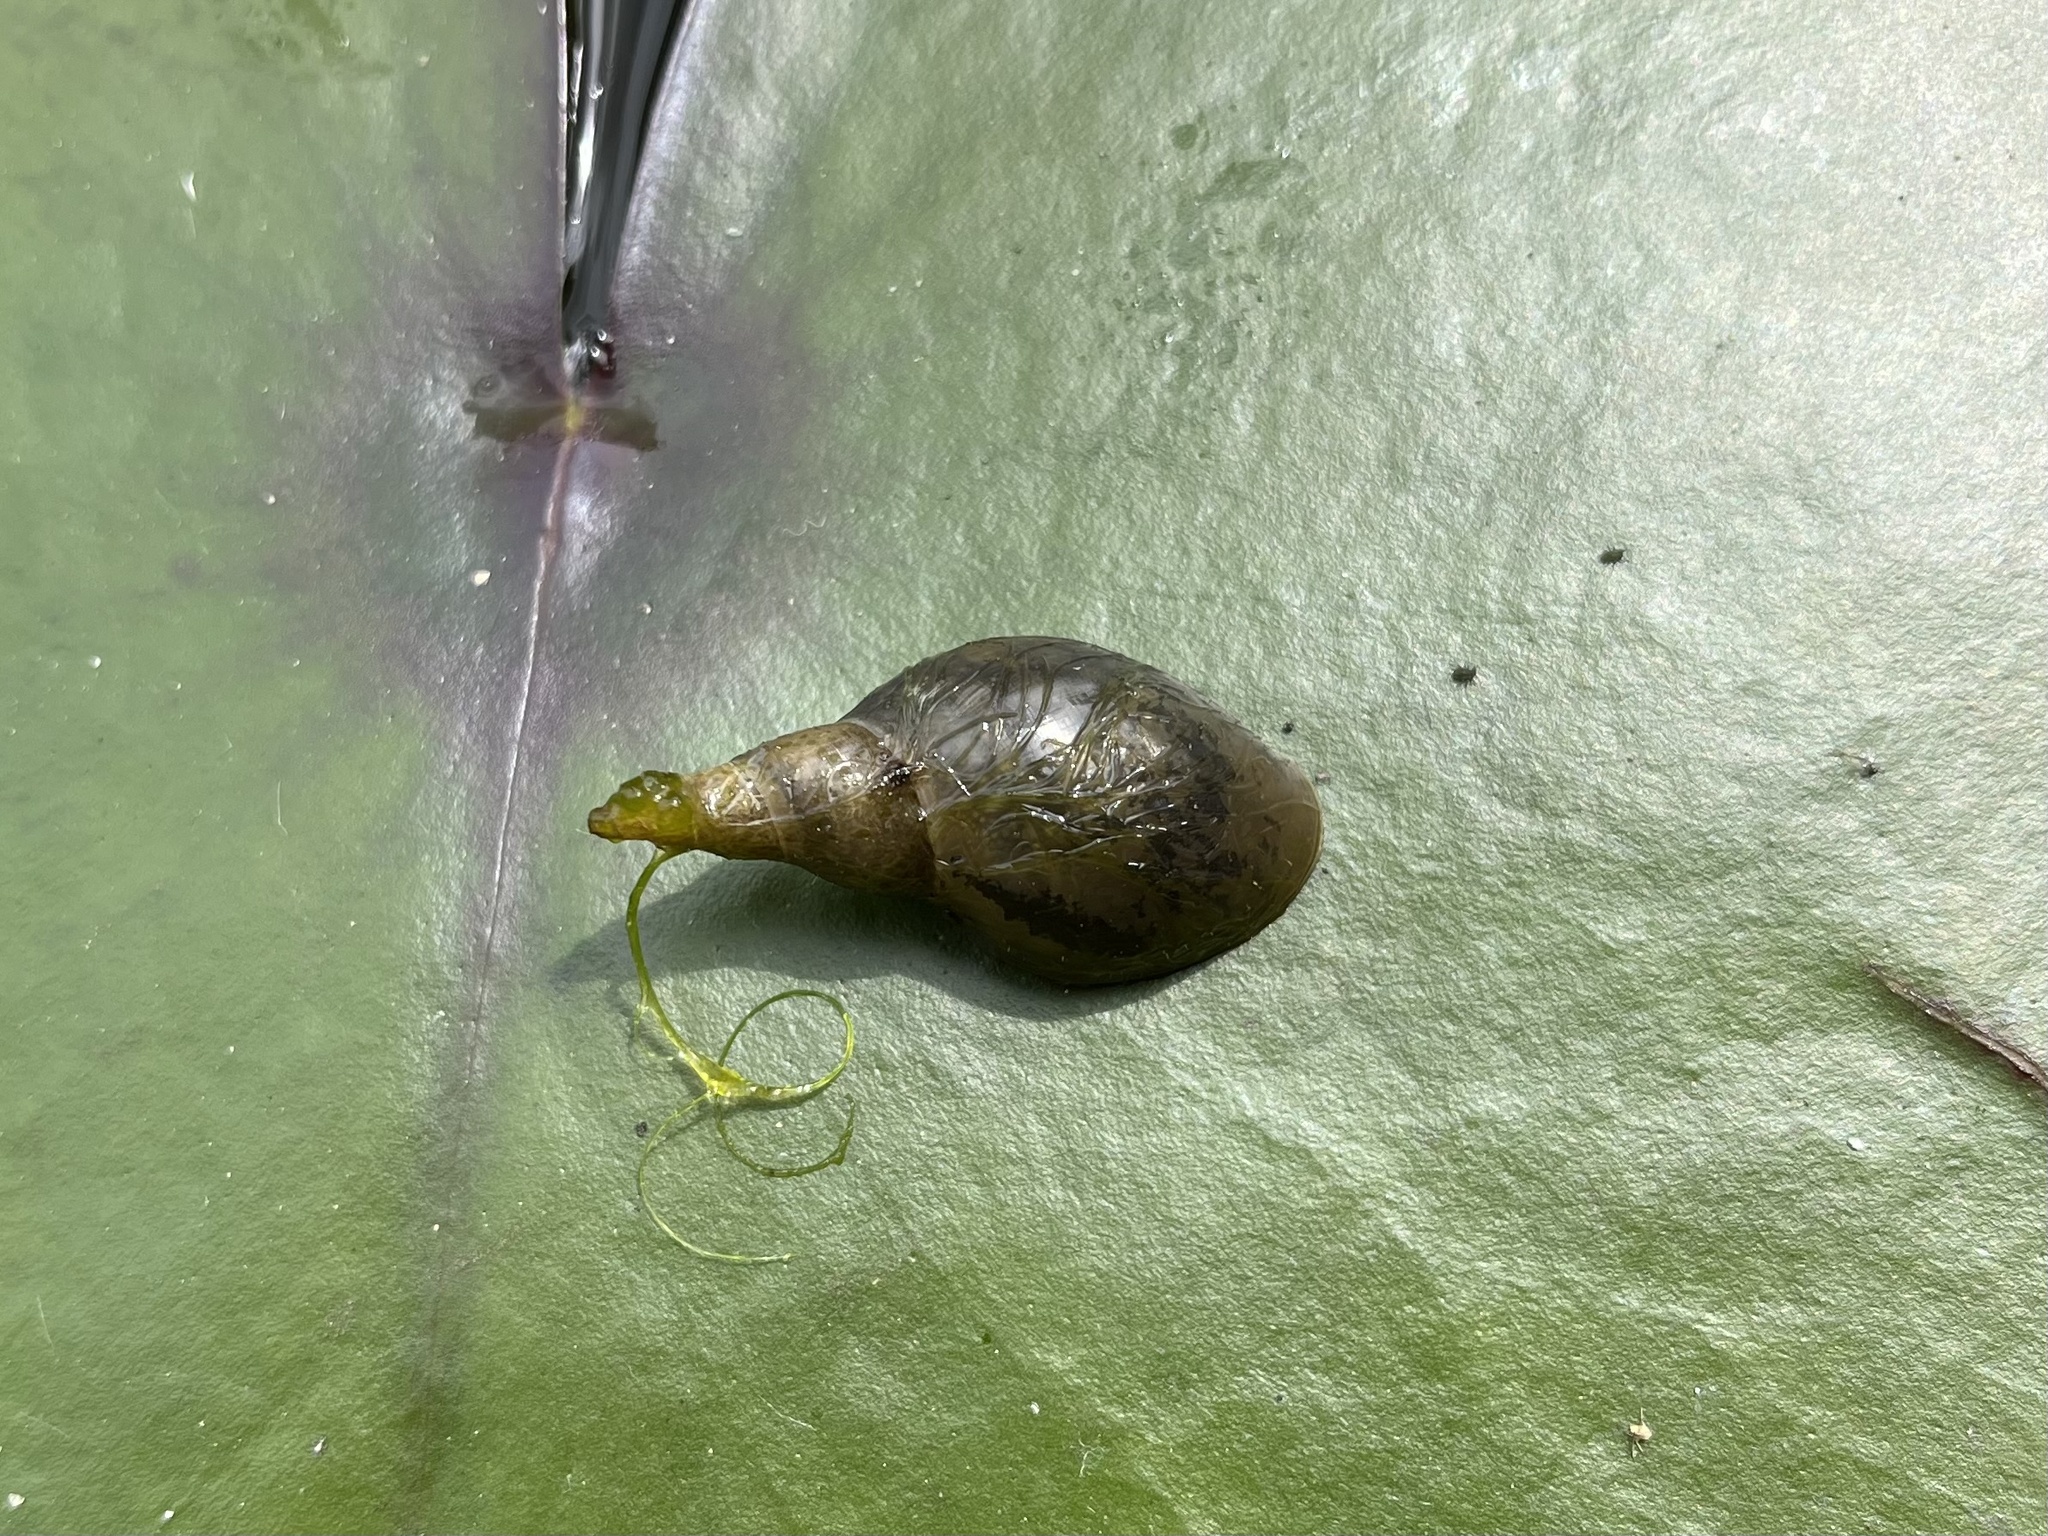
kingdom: Animalia
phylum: Mollusca
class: Gastropoda
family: Lymnaeidae
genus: Lymnaea
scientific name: Lymnaea stagnalis
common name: Great pond snail
